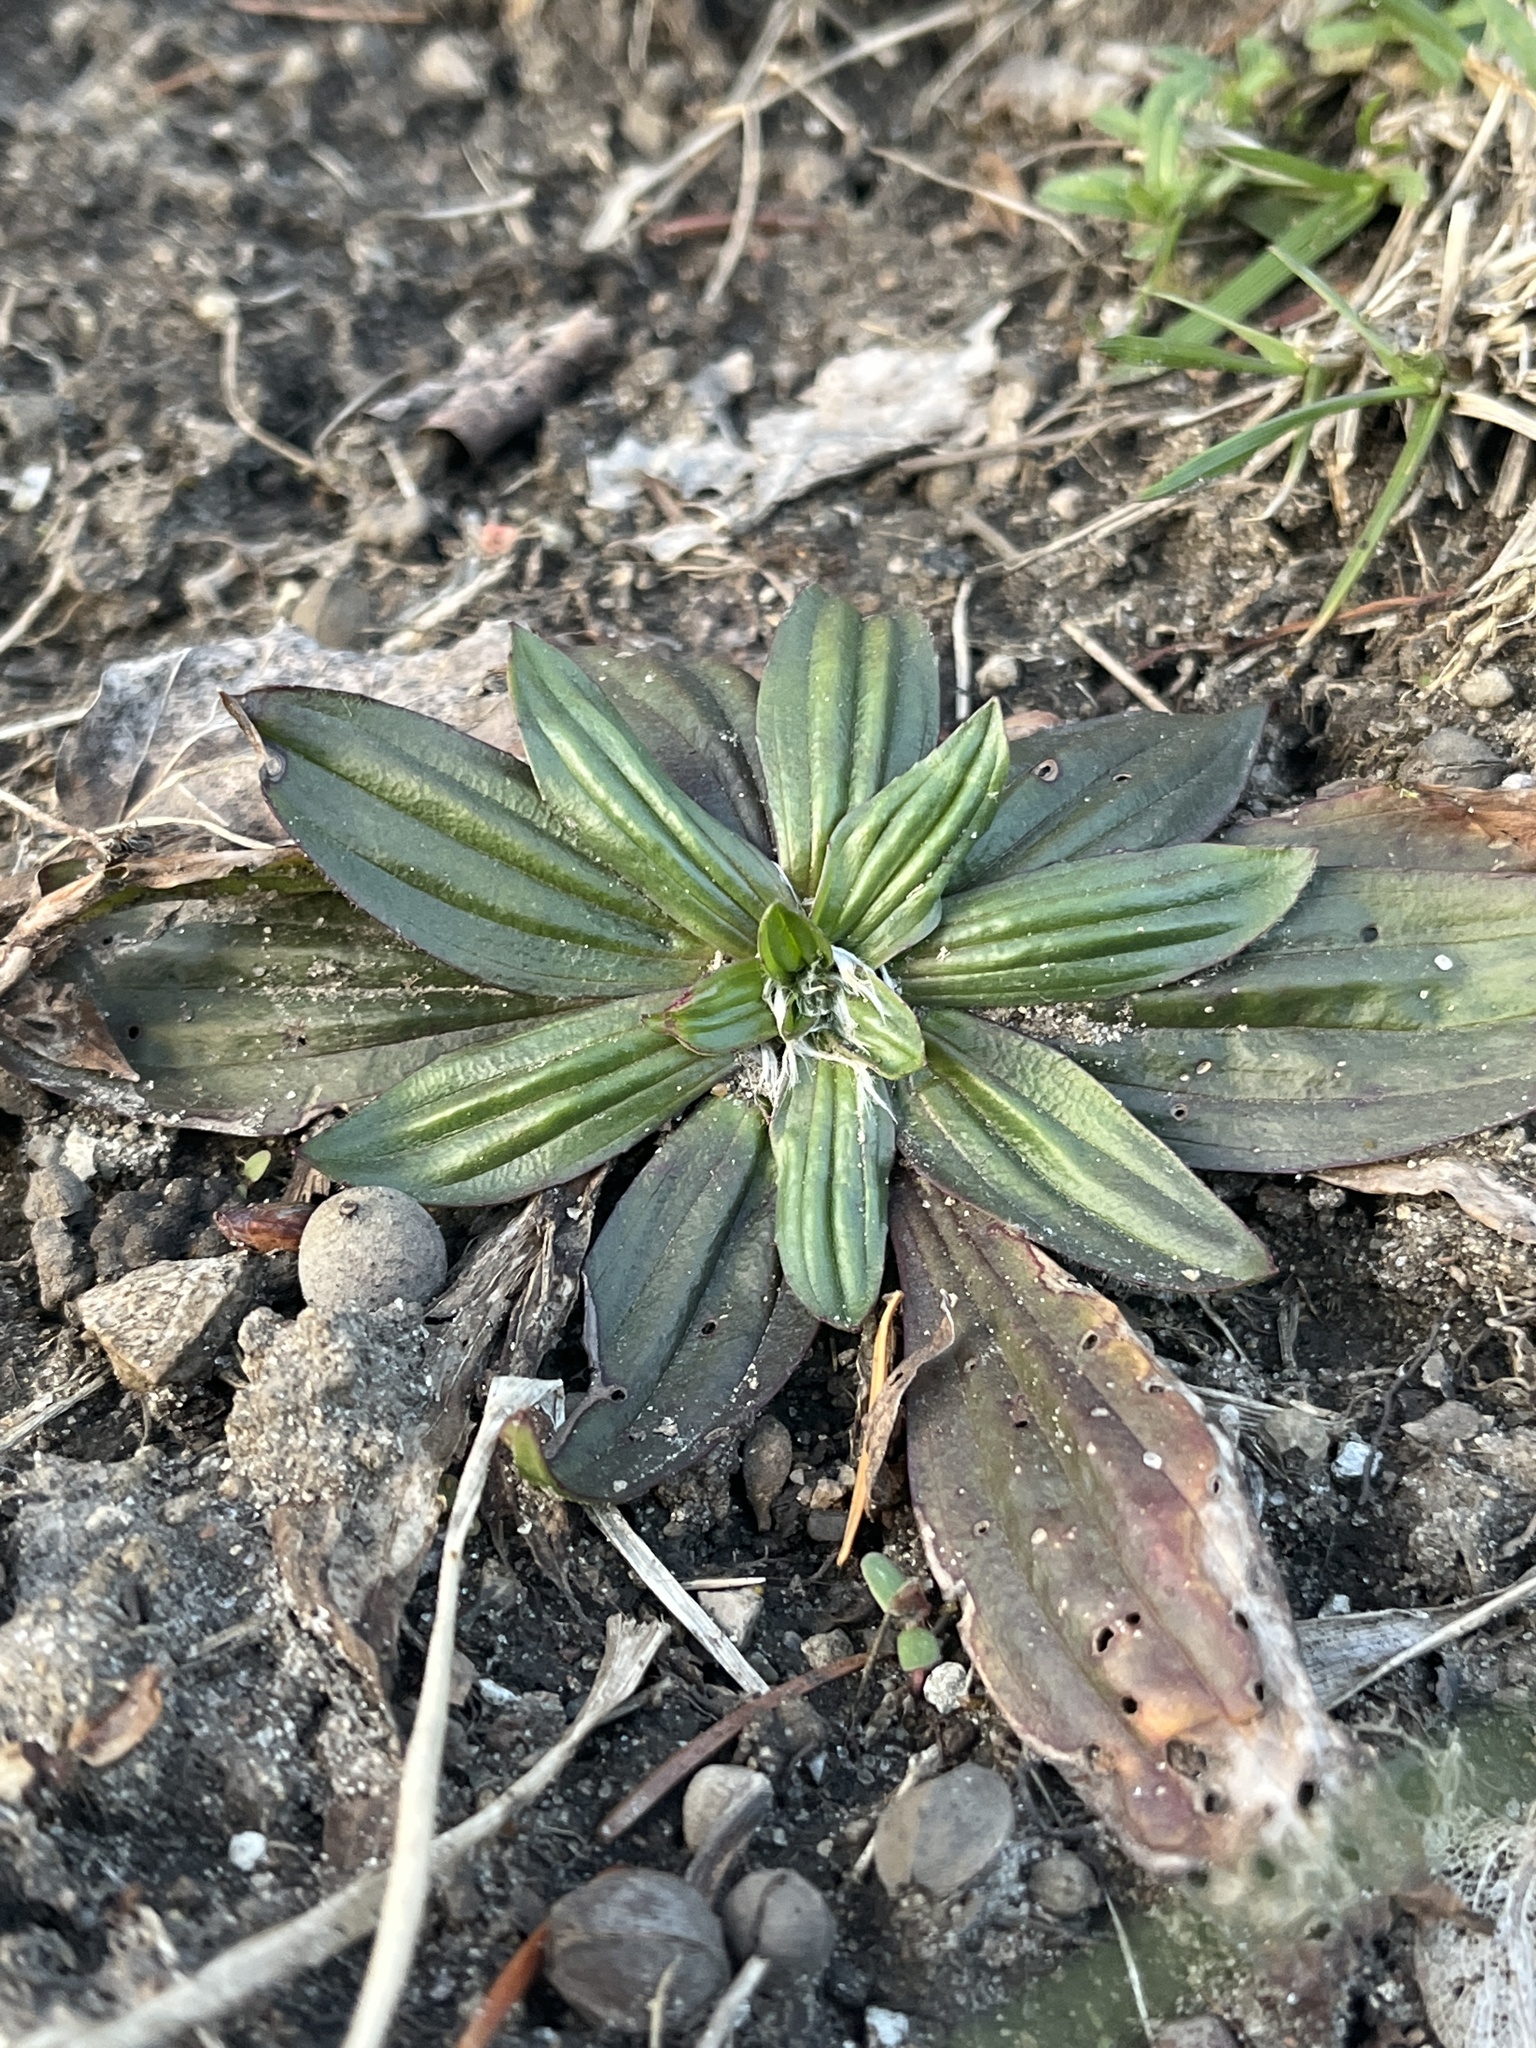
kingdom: Plantae
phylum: Tracheophyta
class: Magnoliopsida
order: Lamiales
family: Plantaginaceae
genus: Plantago
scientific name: Plantago lanceolata
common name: Ribwort plantain
